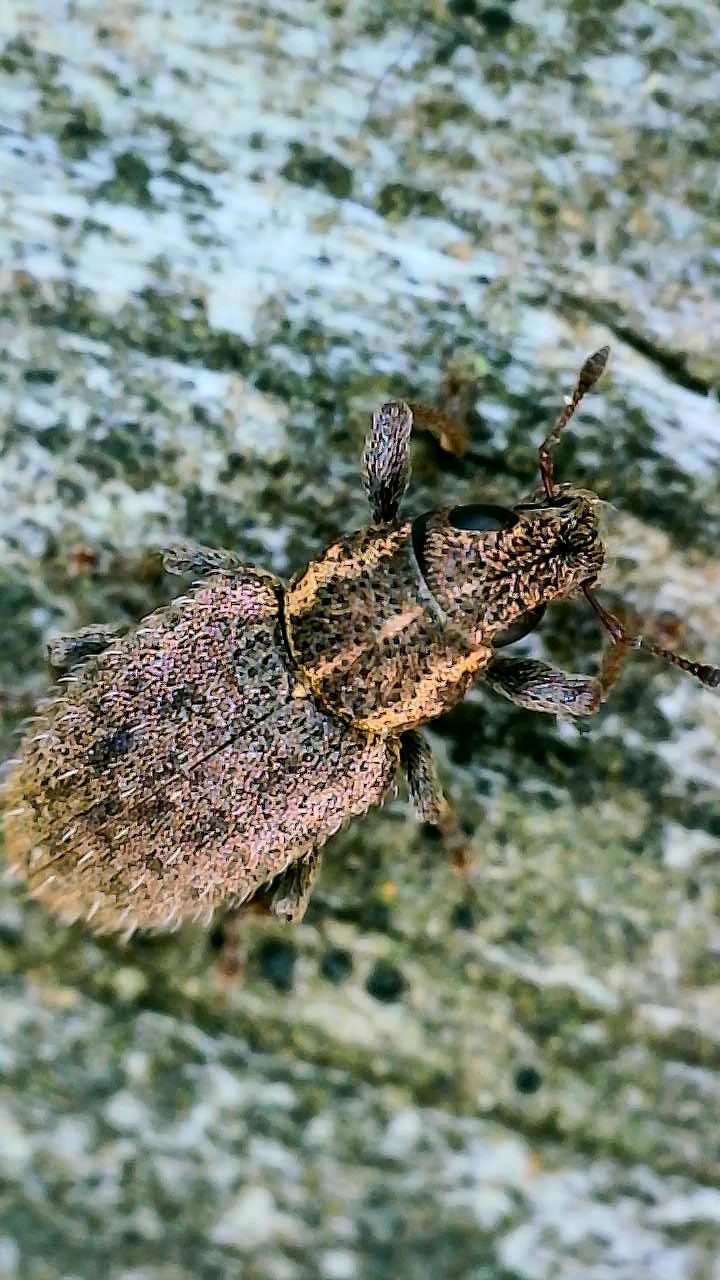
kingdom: Animalia
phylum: Arthropoda
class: Insecta
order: Coleoptera
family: Curculionidae
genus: Sitona
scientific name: Sitona hispidulus
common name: Clover weevil
